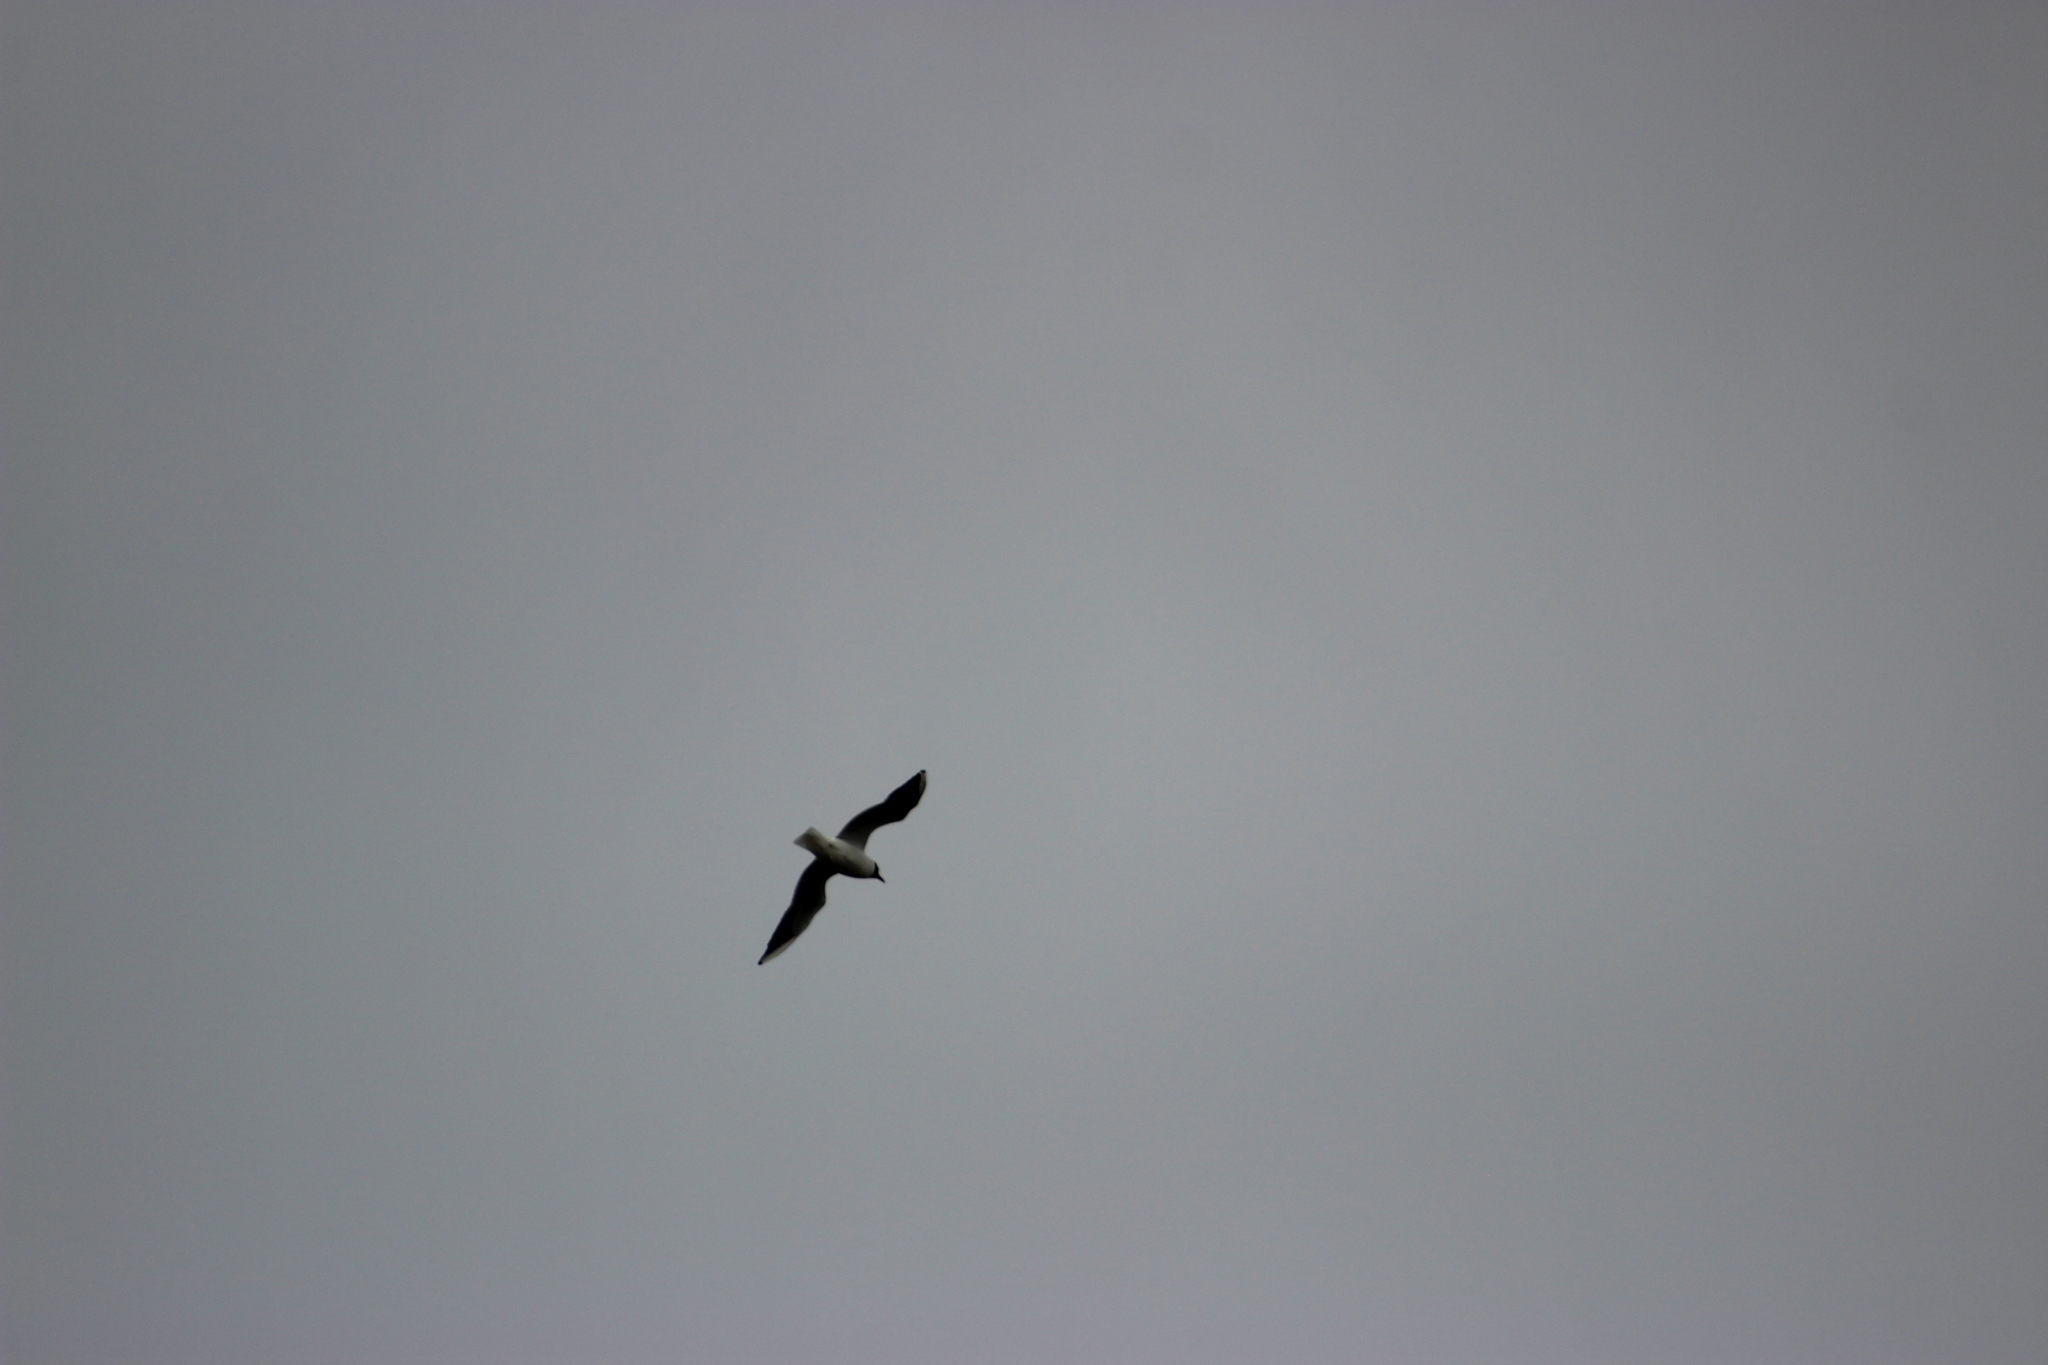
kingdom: Animalia
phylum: Chordata
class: Aves
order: Charadriiformes
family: Laridae
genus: Chroicocephalus
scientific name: Chroicocephalus ridibundus
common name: Black-headed gull
